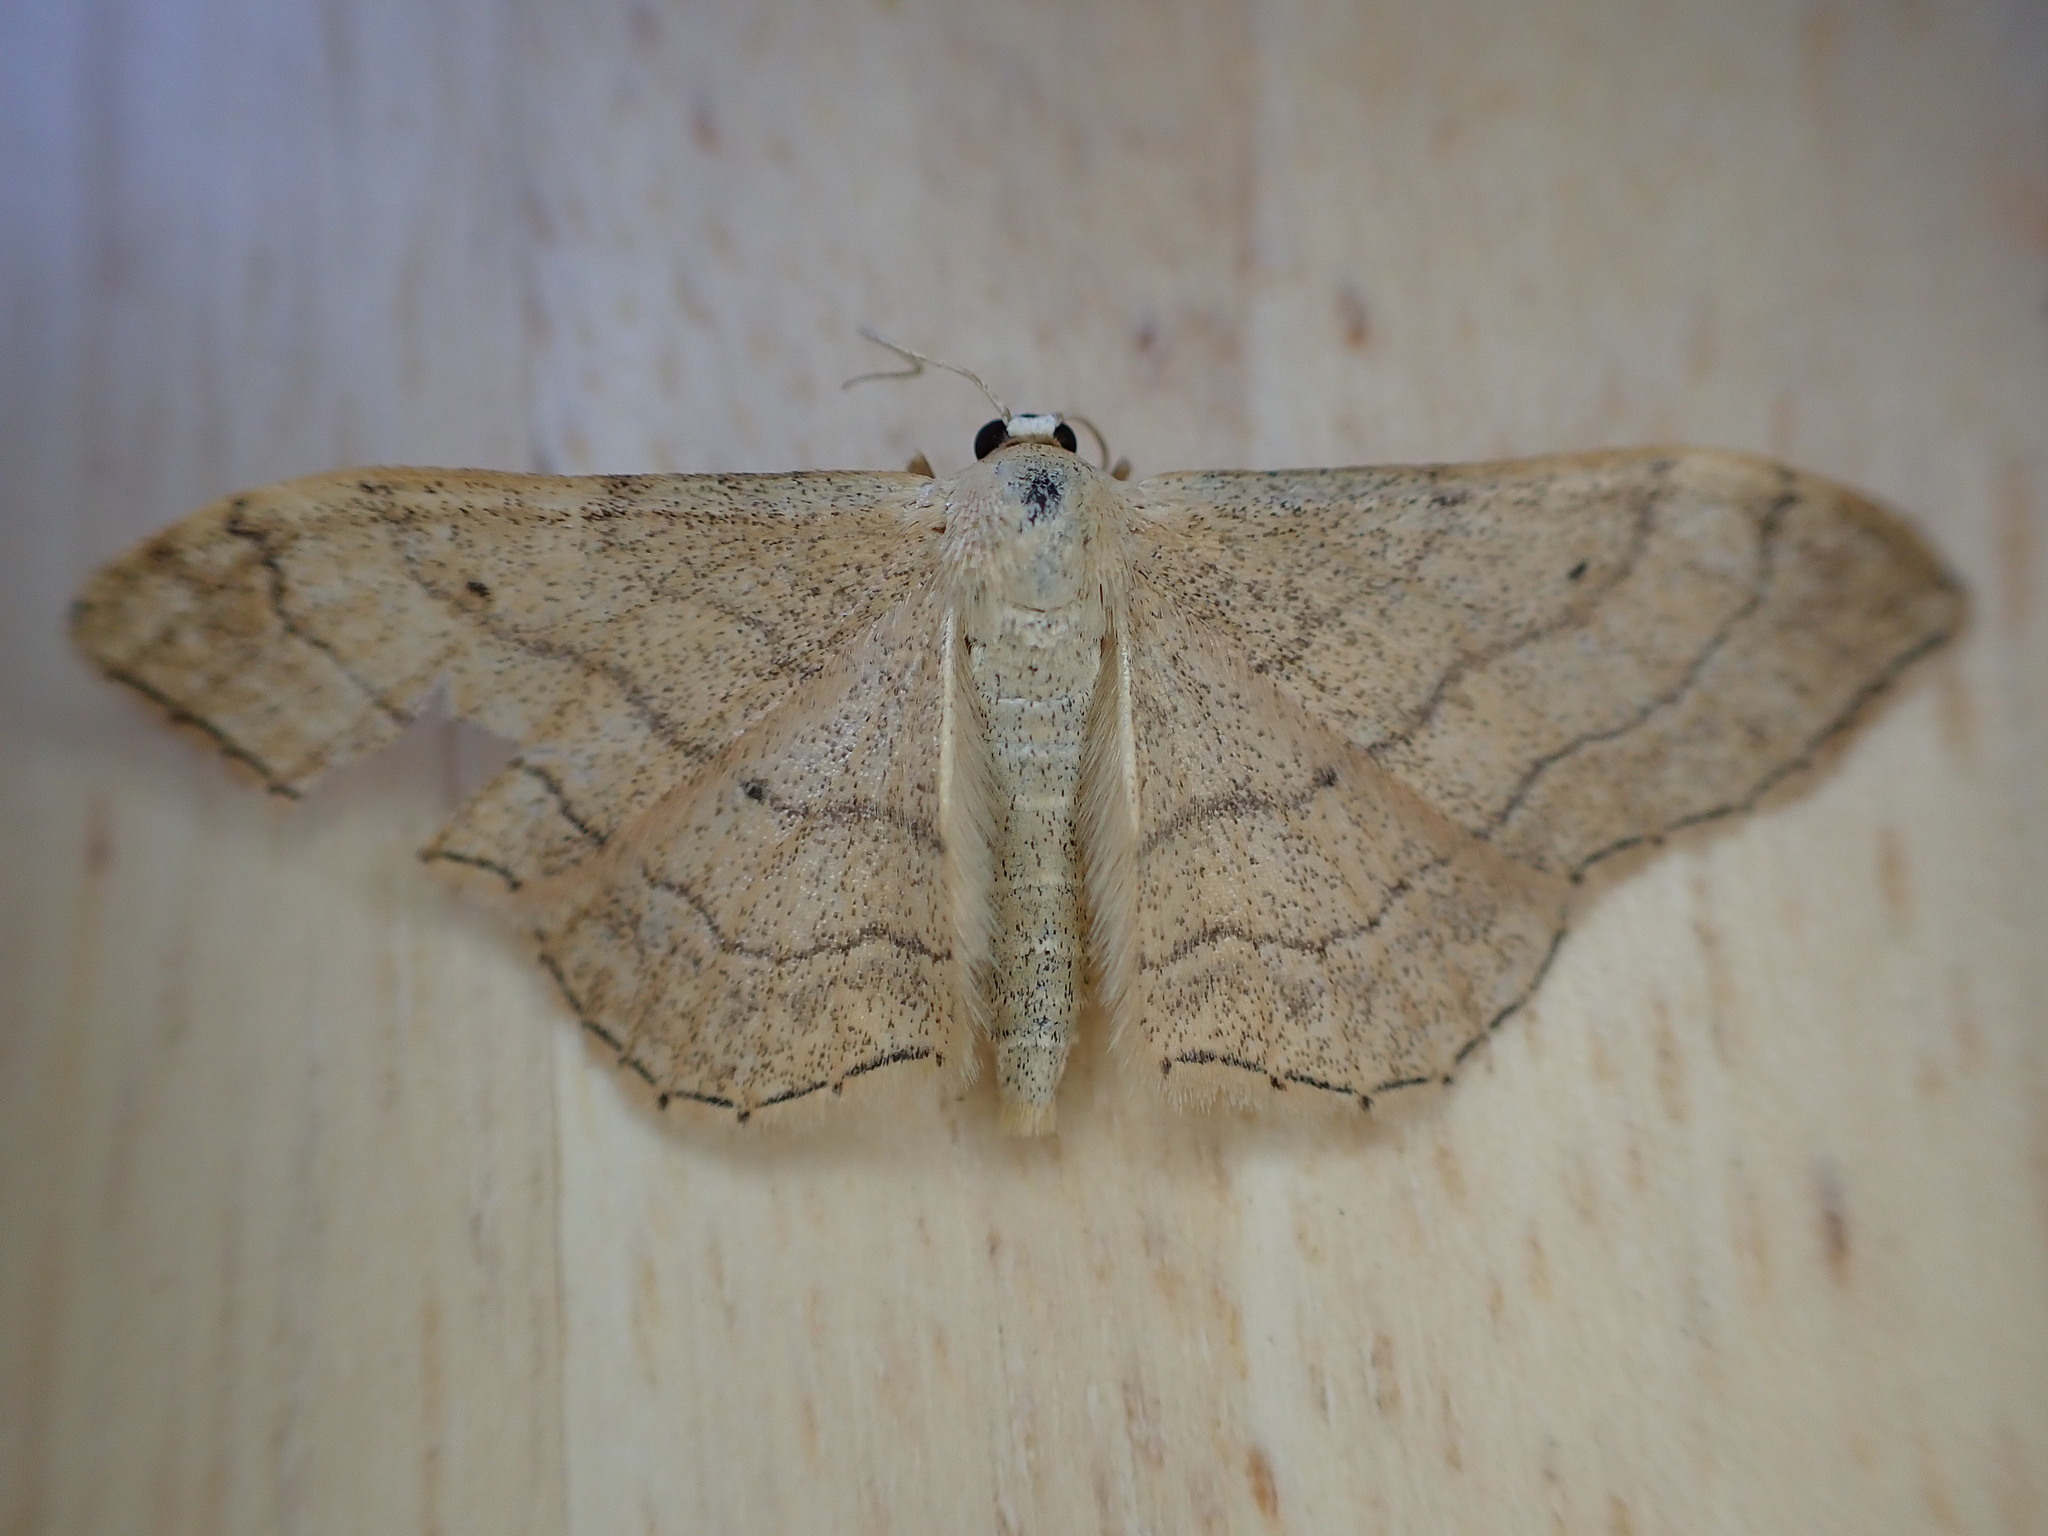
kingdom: Animalia
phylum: Arthropoda
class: Insecta
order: Lepidoptera
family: Geometridae
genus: Idaea
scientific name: Idaea aversata
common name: Riband wave
